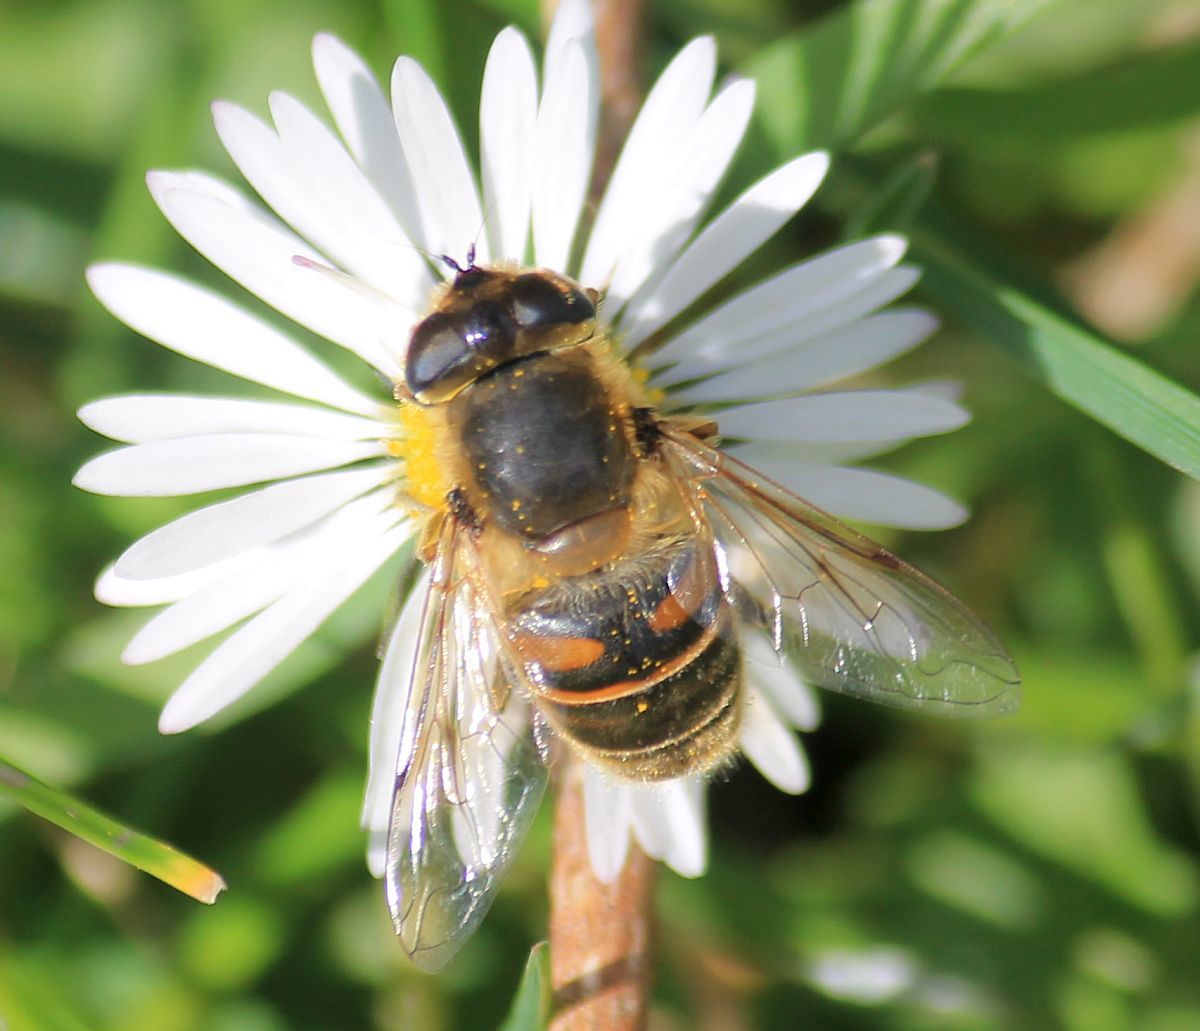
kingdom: Animalia
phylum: Arthropoda
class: Insecta
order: Diptera
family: Syrphidae
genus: Eristalis
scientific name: Eristalis tenax
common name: Drone fly
